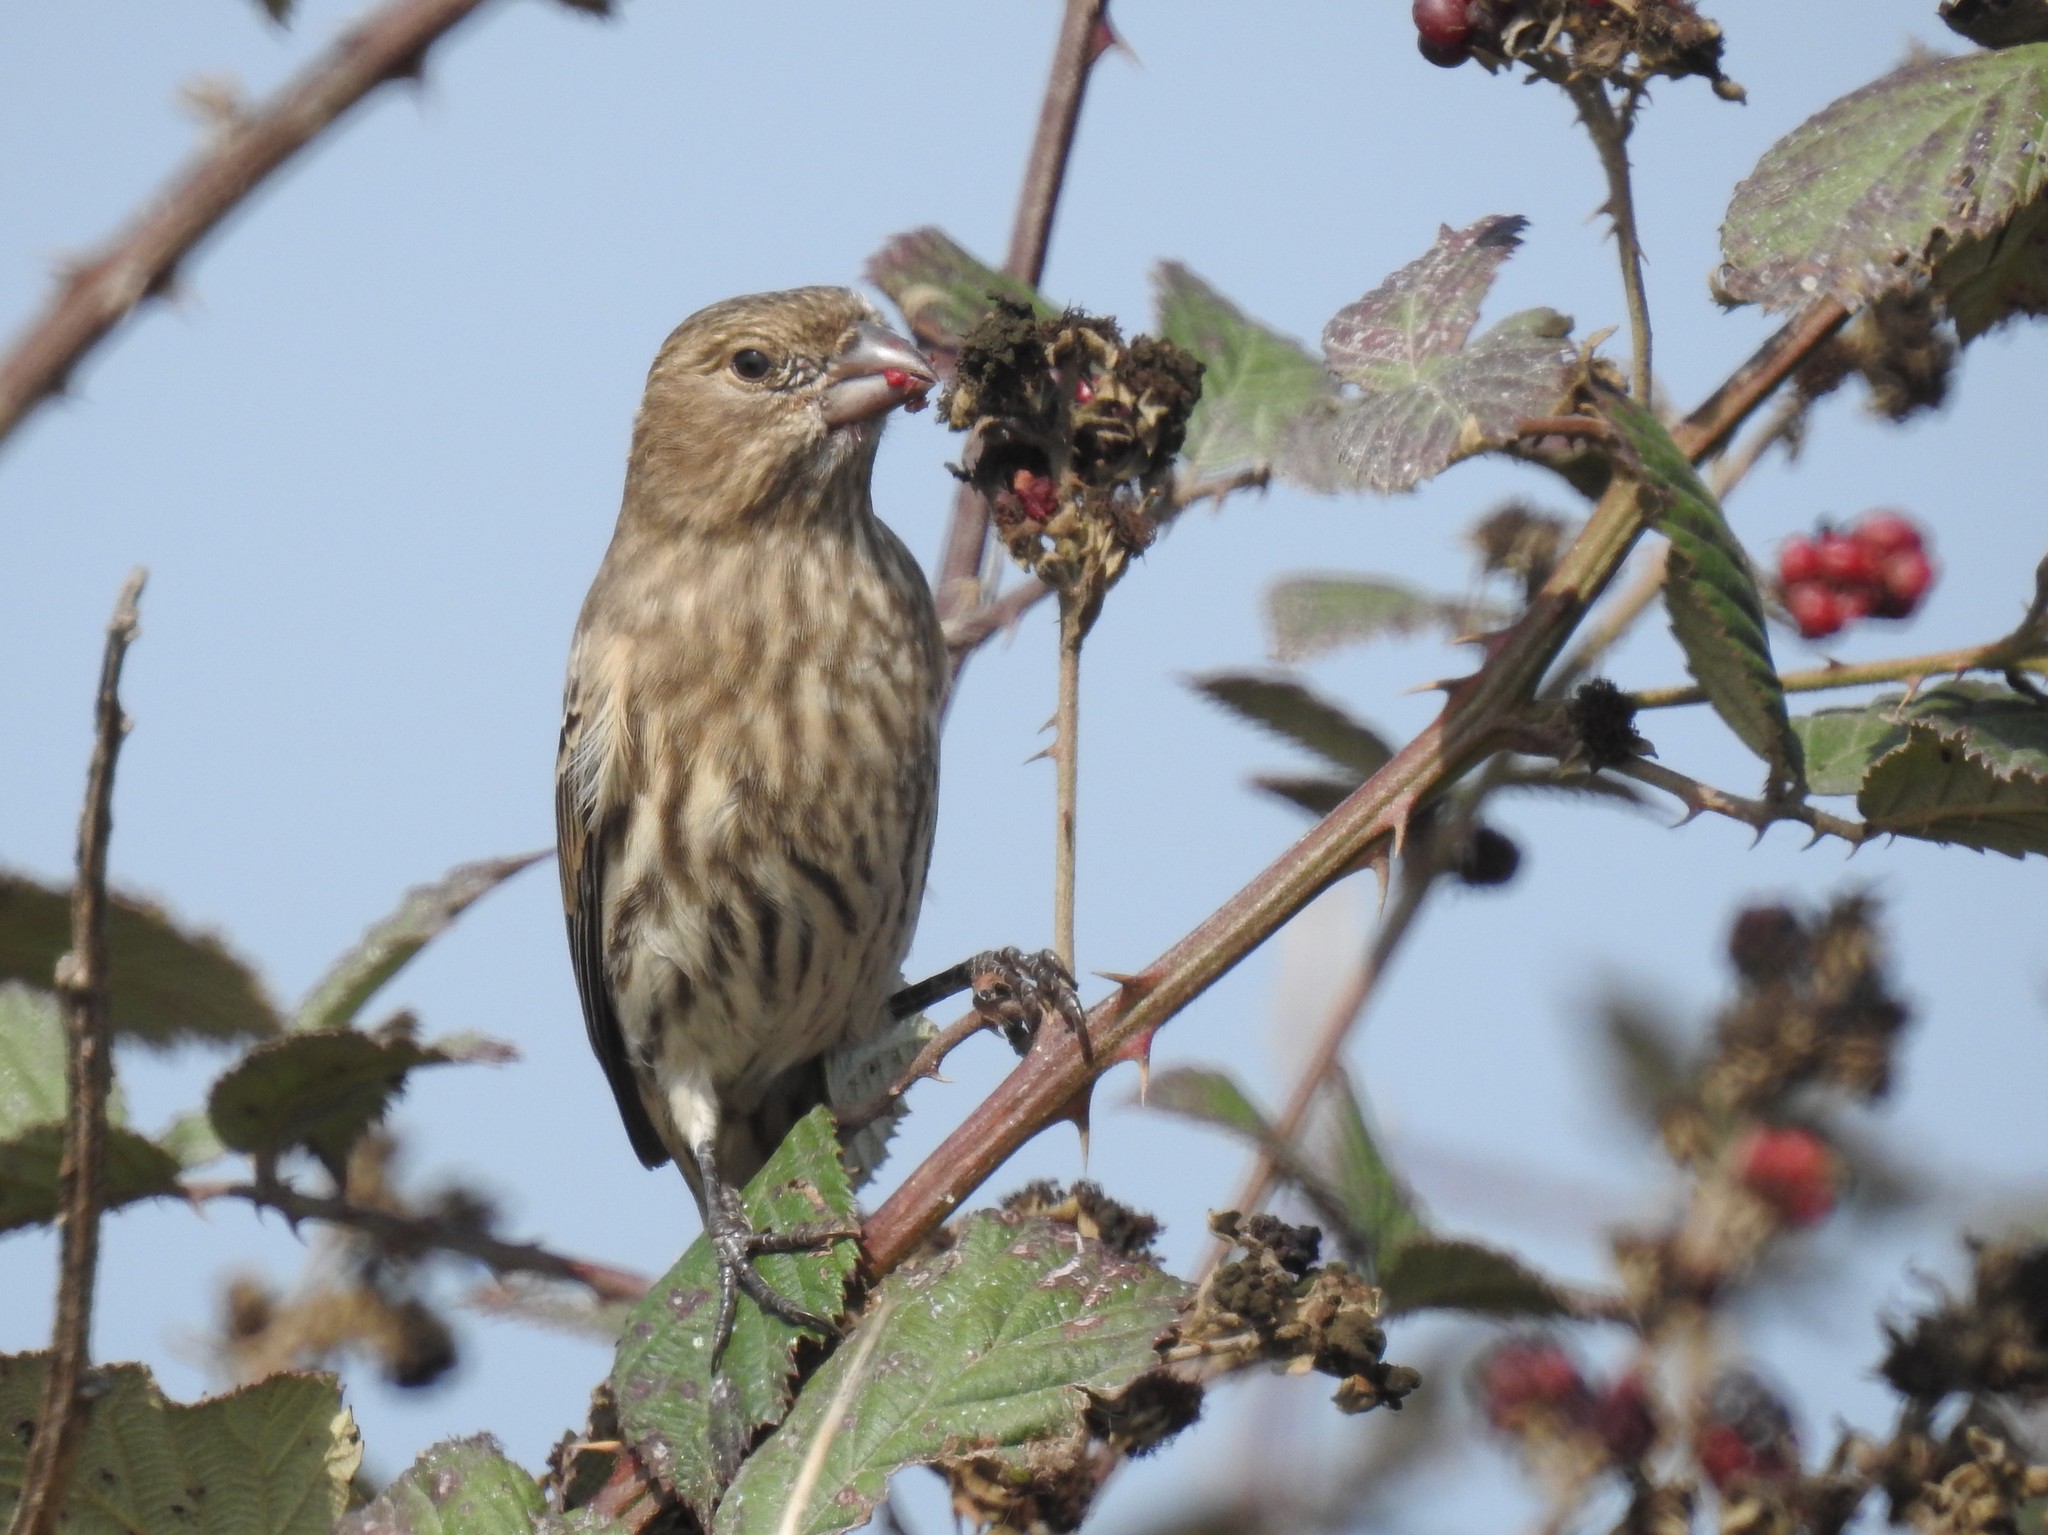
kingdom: Animalia
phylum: Chordata
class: Aves
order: Passeriformes
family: Fringillidae
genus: Haemorhous
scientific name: Haemorhous mexicanus
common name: House finch
